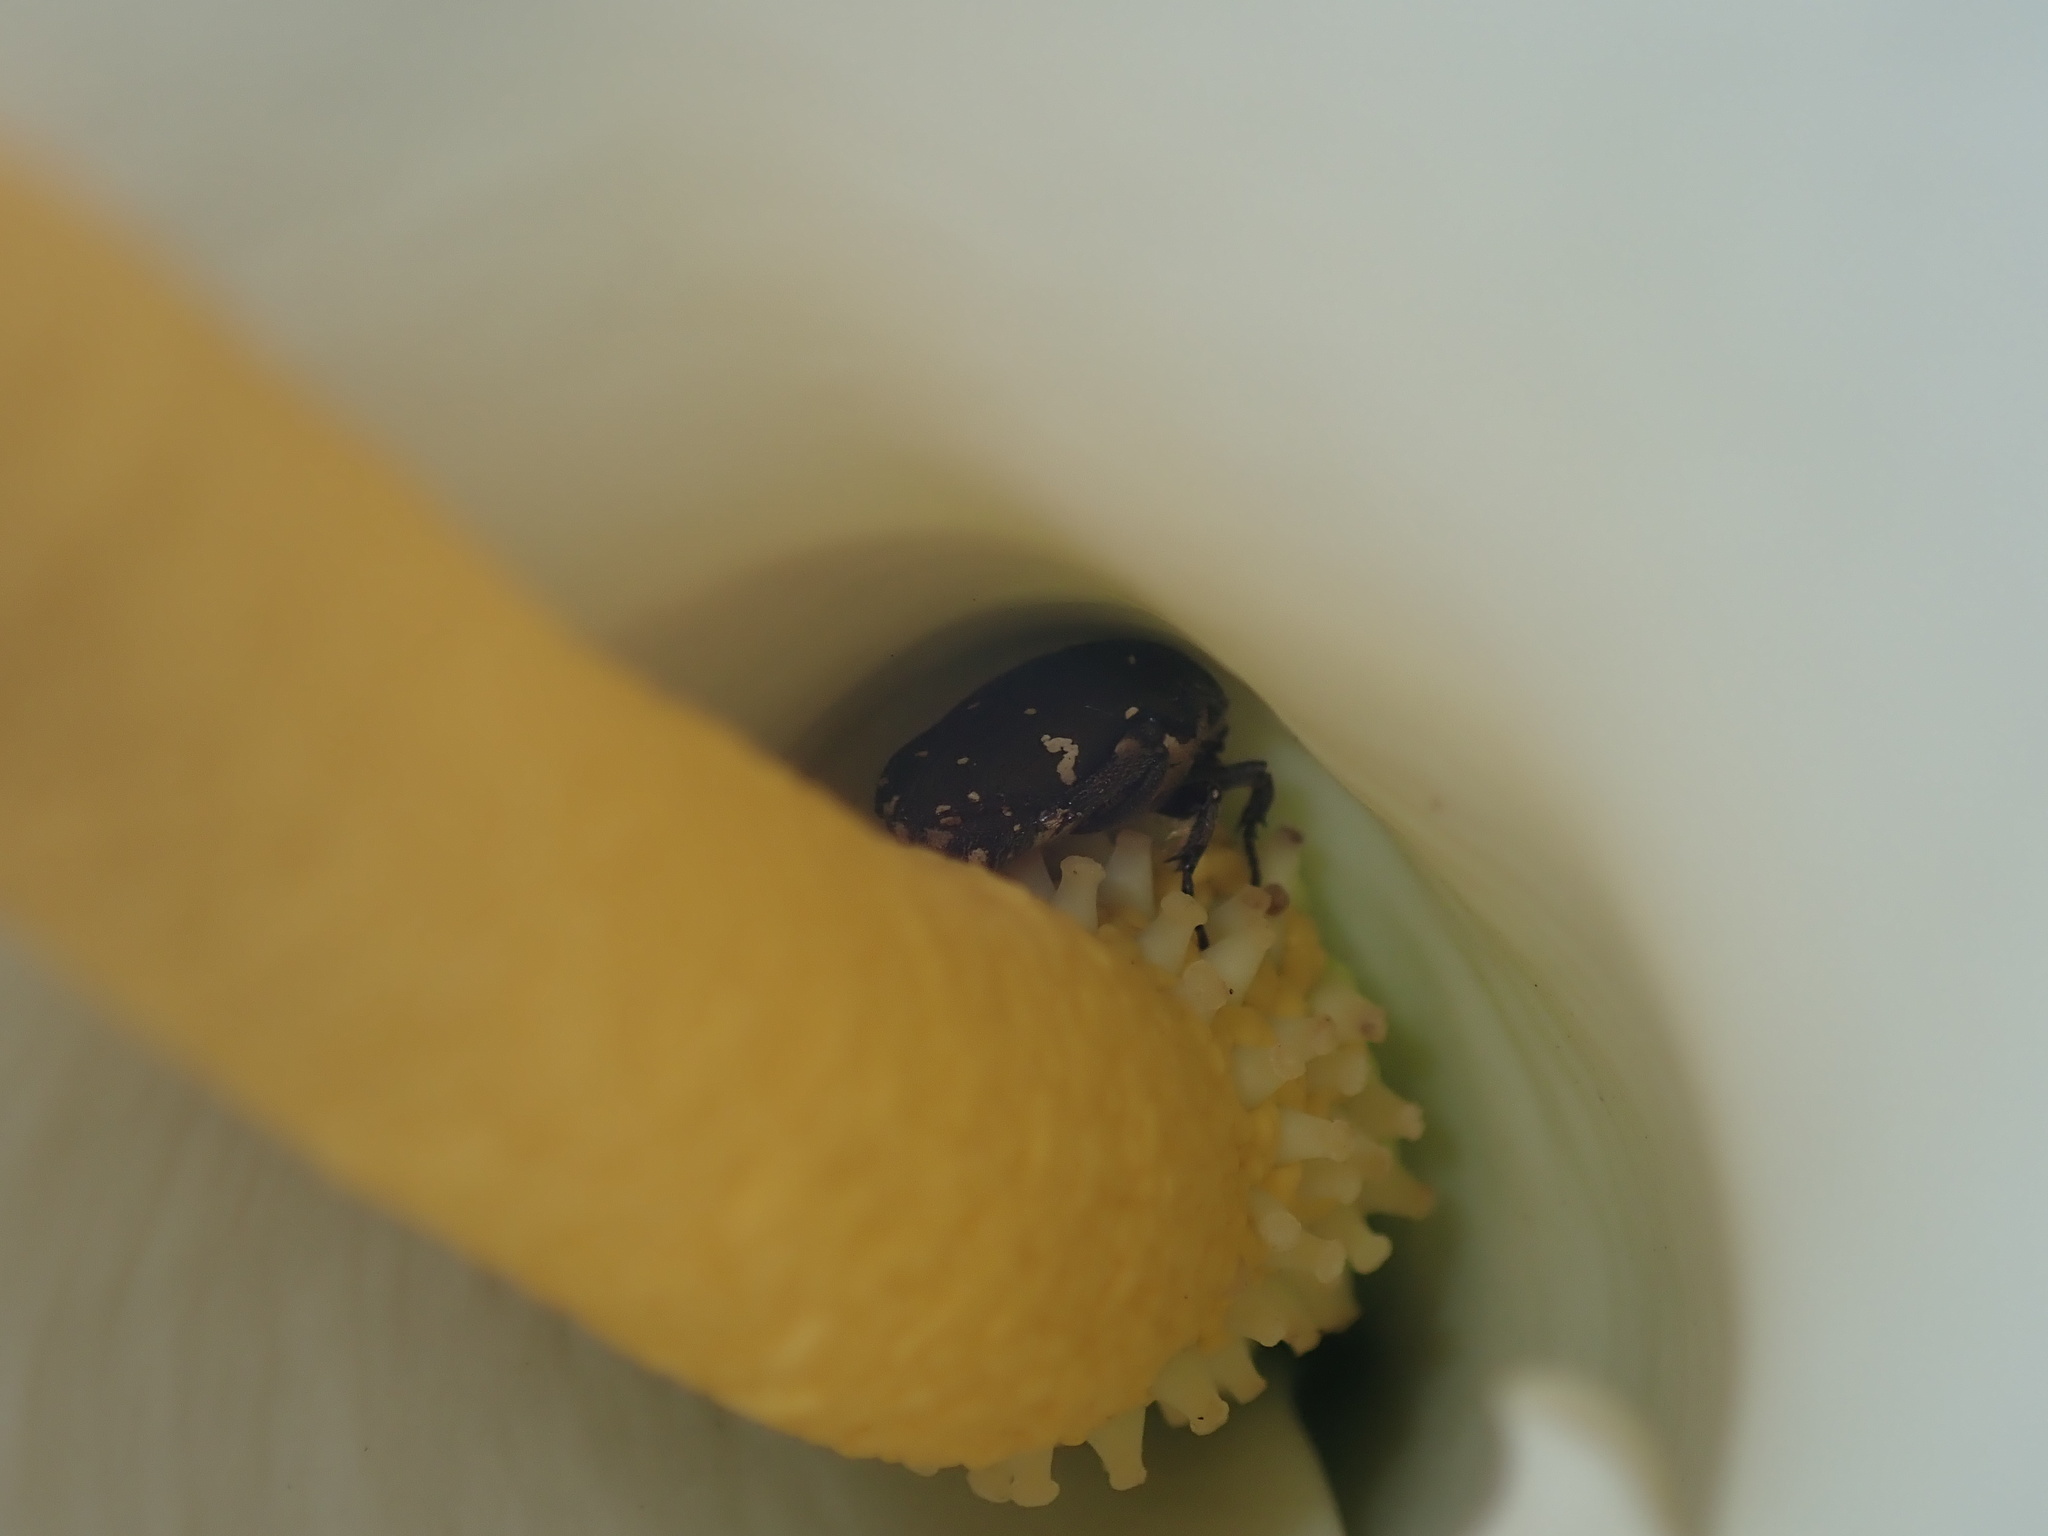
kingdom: Animalia
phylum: Arthropoda
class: Insecta
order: Coleoptera
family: Scarabaeidae
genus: Glycyphana
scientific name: Glycyphana stolata
